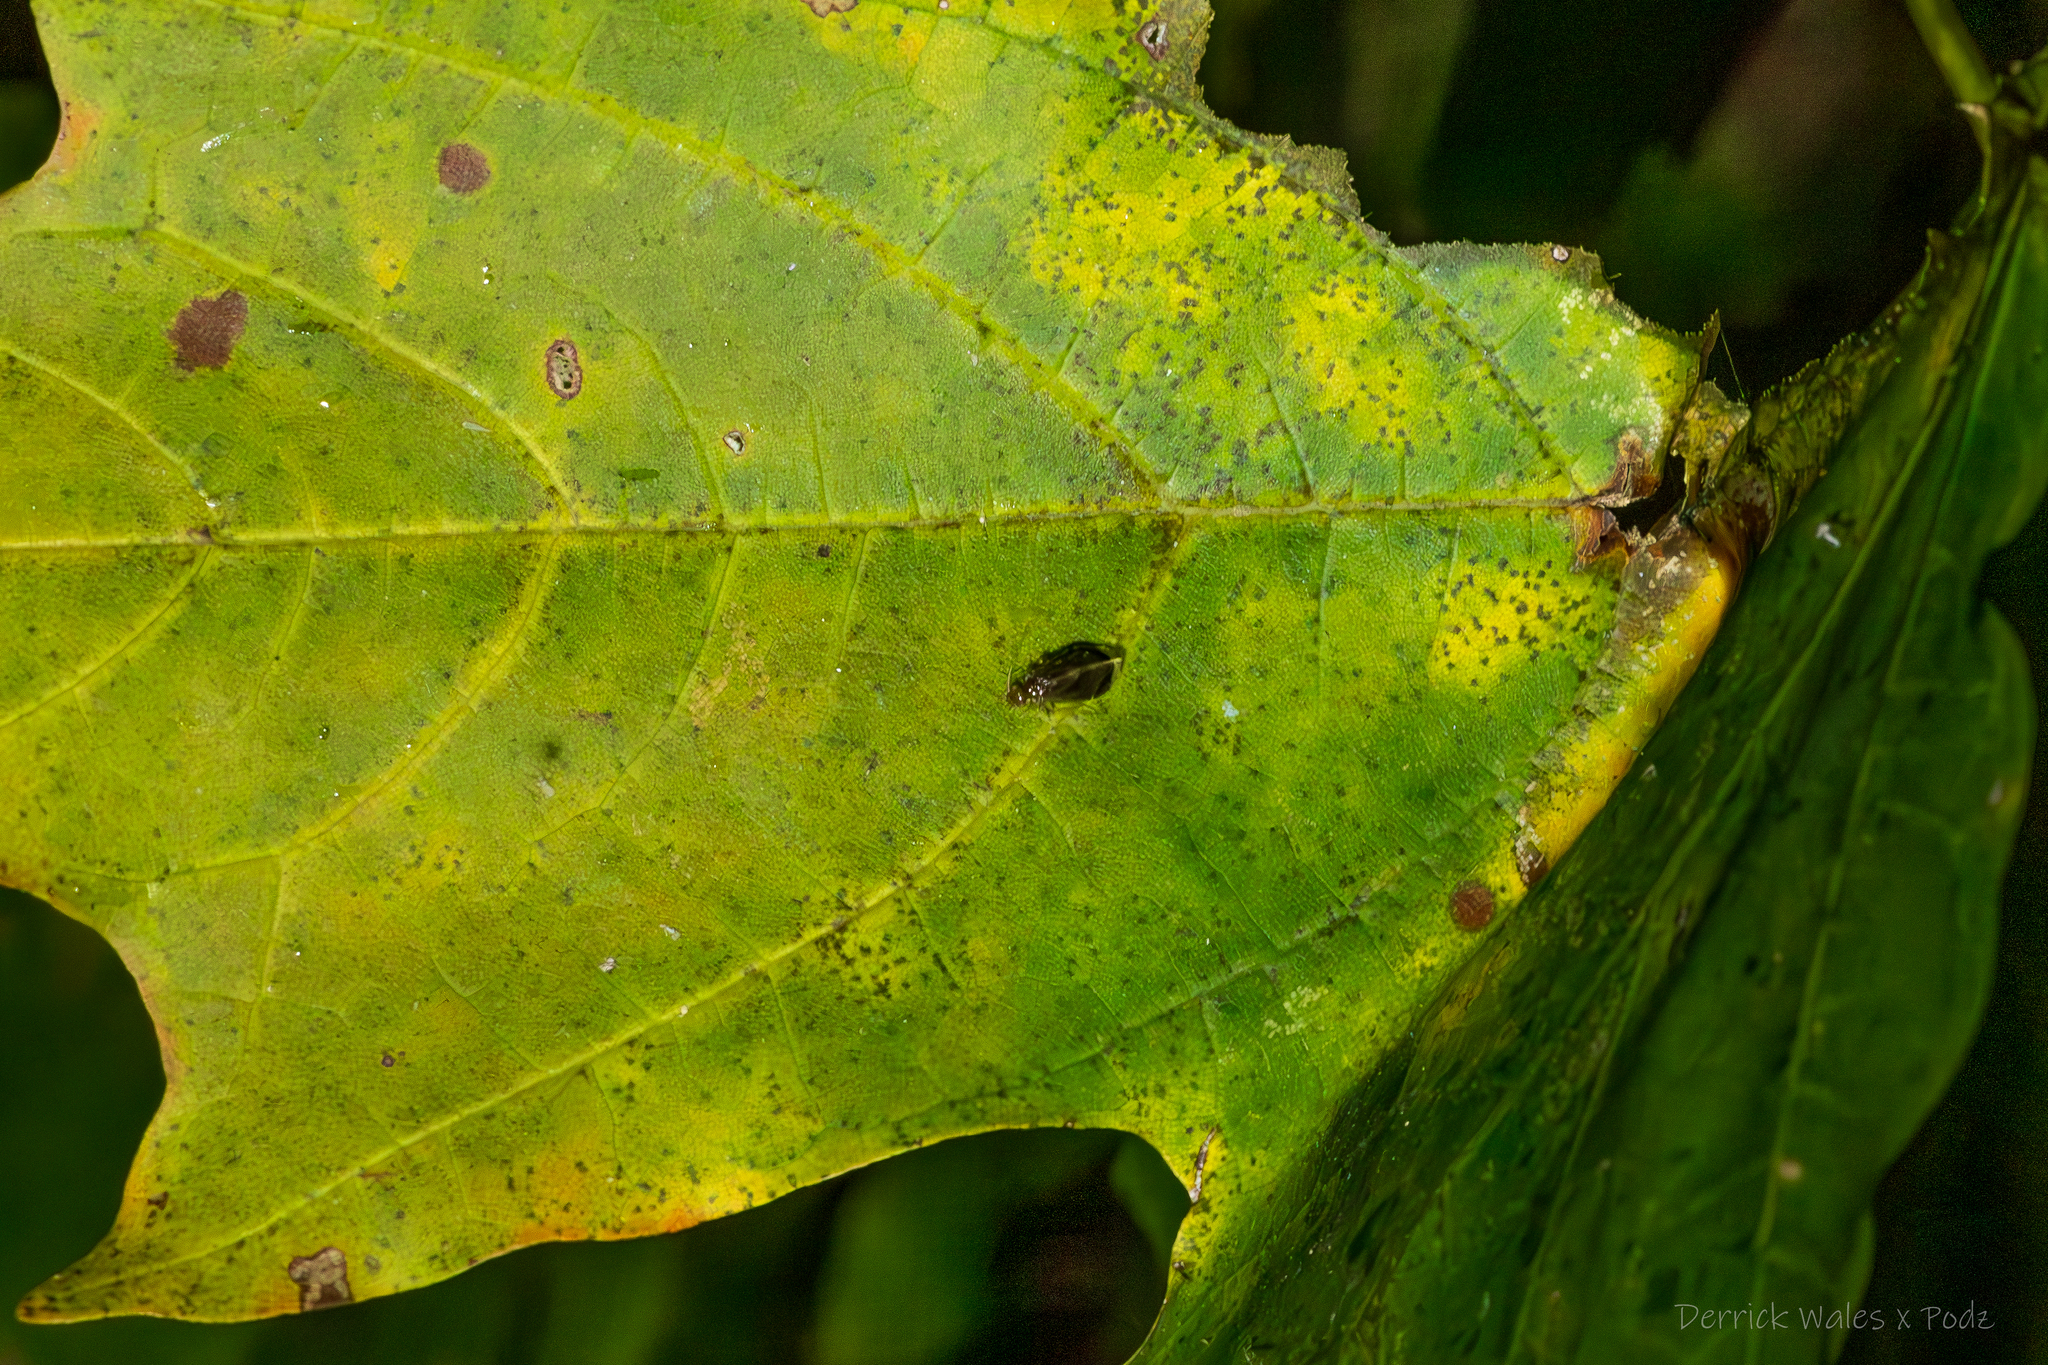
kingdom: Animalia
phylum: Arthropoda
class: Insecta
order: Psocodea
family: Amphipsocidae
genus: Polypsocus
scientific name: Polypsocus corruptus
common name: Corrupt barklouse
